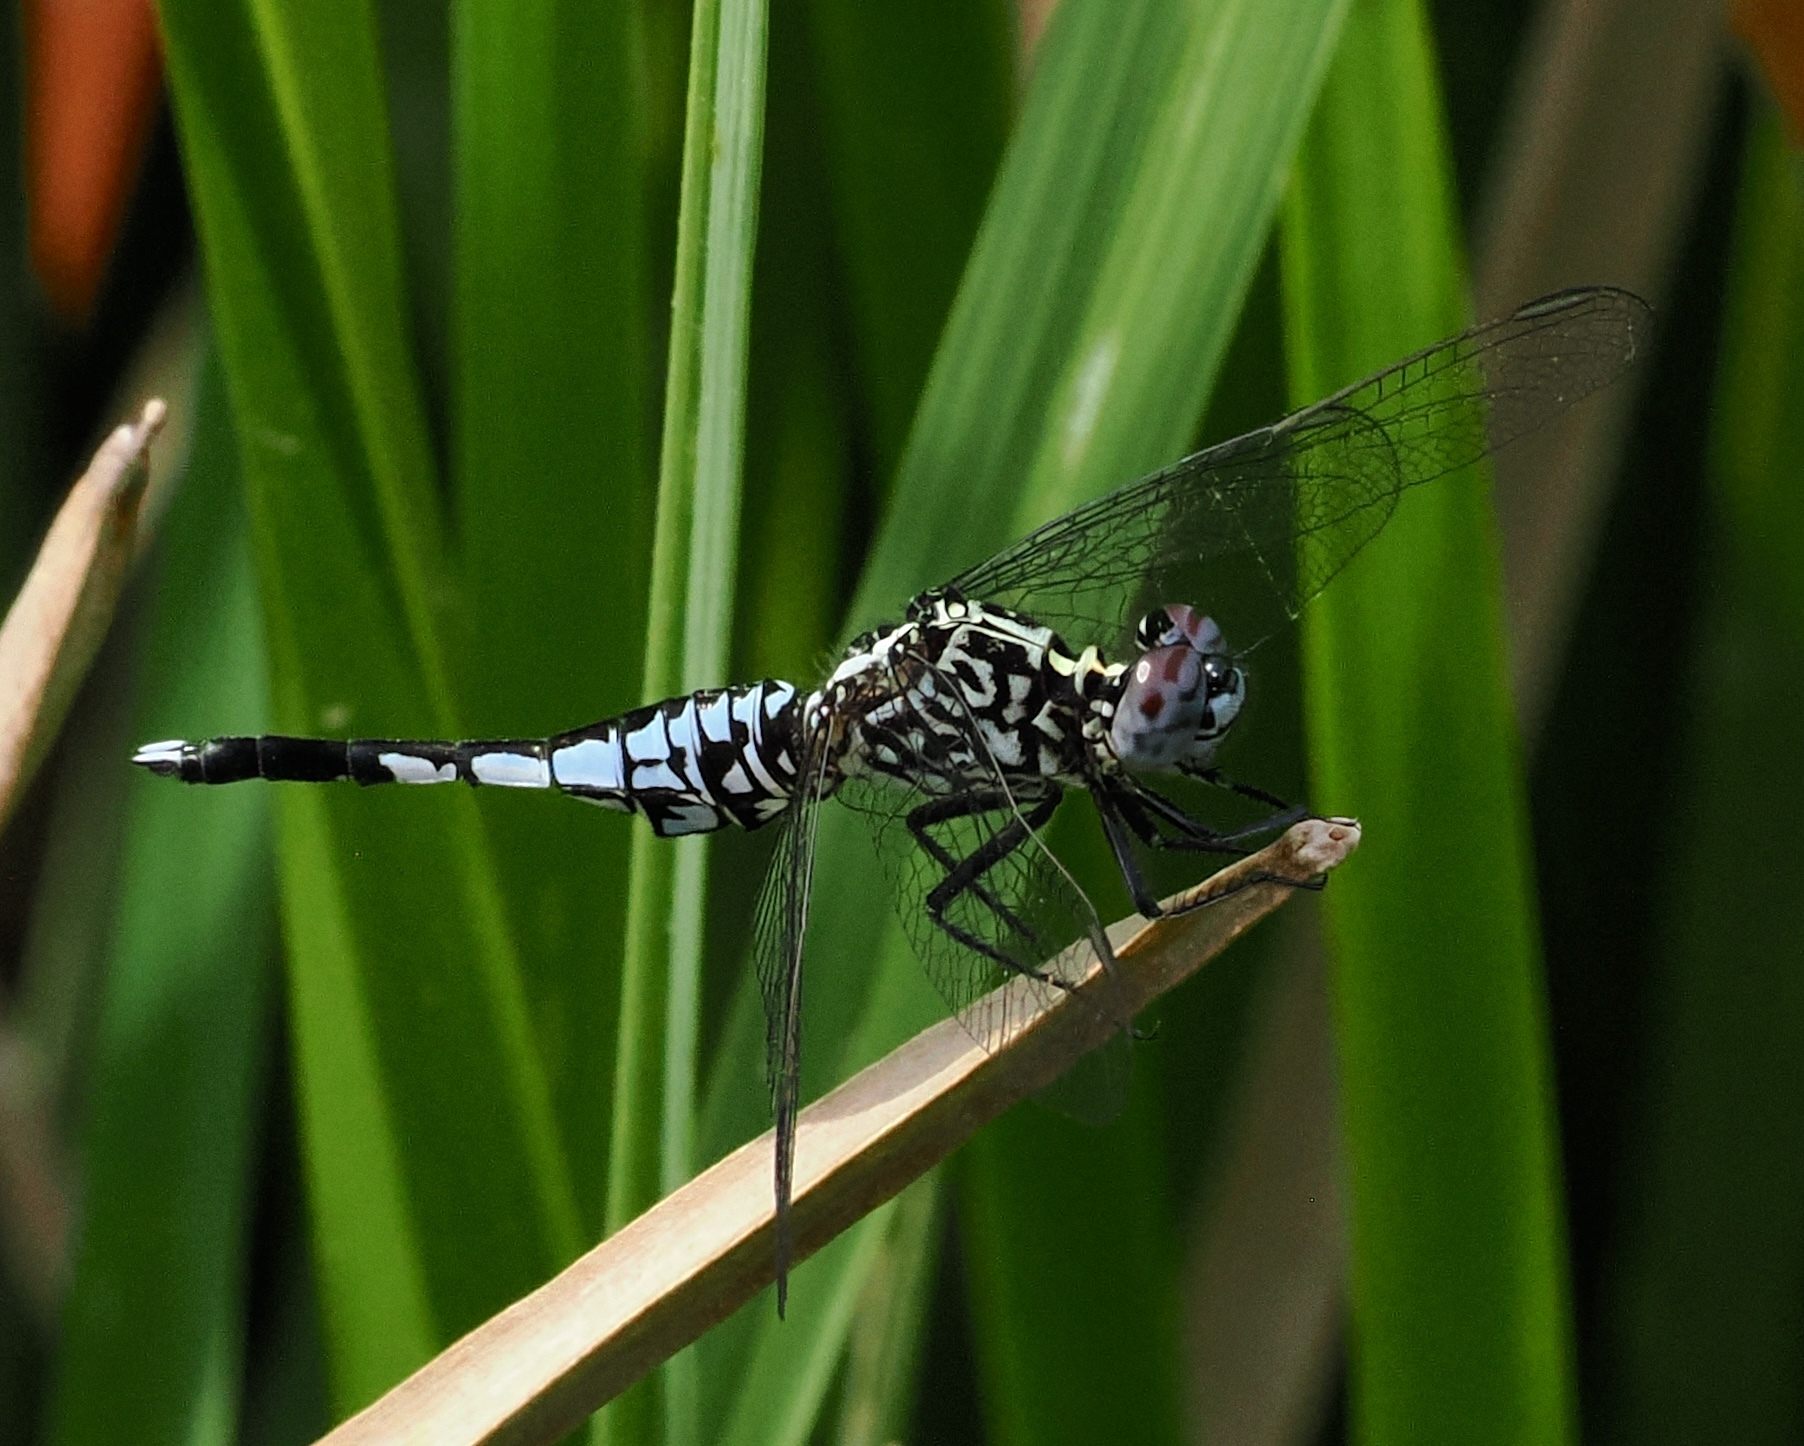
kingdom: Animalia
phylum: Arthropoda
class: Insecta
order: Odonata
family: Libellulidae
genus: Acisoma
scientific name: Acisoma inflatum
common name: Stout pintail
